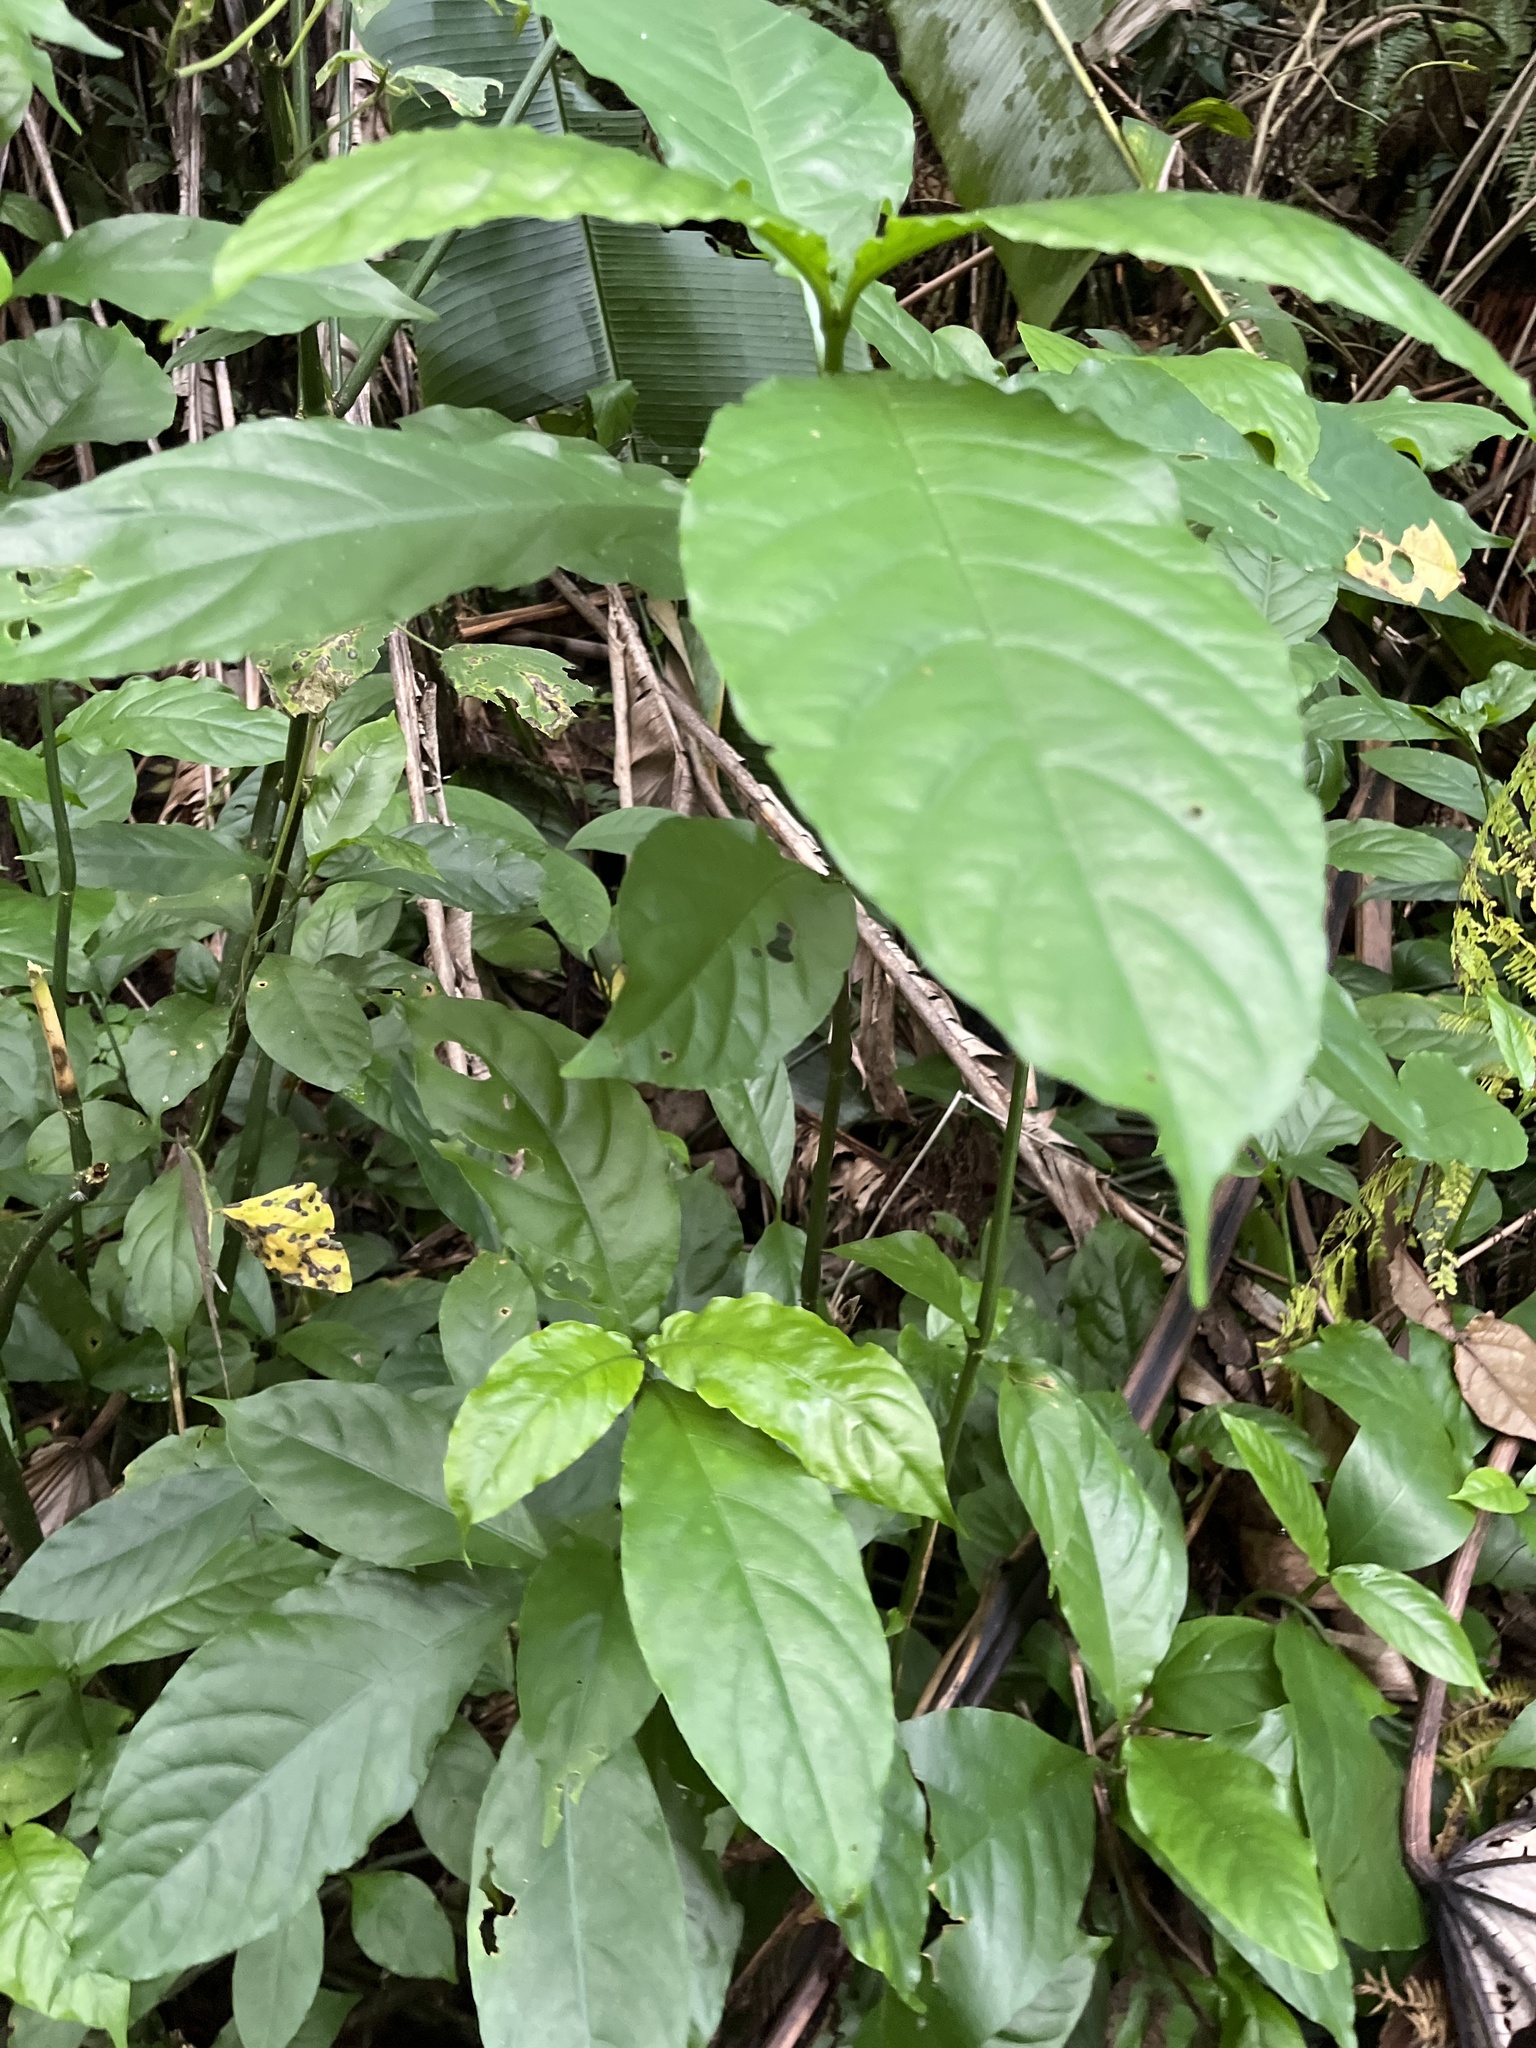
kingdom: Plantae
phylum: Tracheophyta
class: Magnoliopsida
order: Lamiales
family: Acanthaceae
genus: Odontonema
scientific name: Odontonema cuspidatum
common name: Mottled toothedthread
